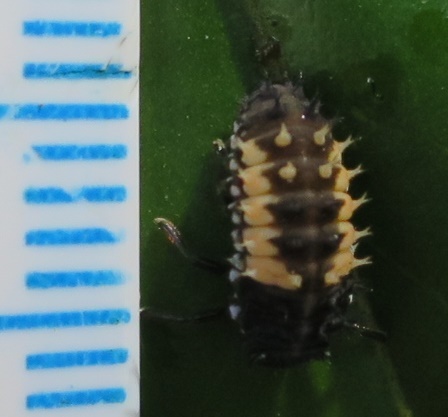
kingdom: Animalia
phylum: Arthropoda
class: Insecta
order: Coleoptera
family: Coccinellidae
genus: Harmonia
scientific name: Harmonia axyridis
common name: Harlequin ladybird
